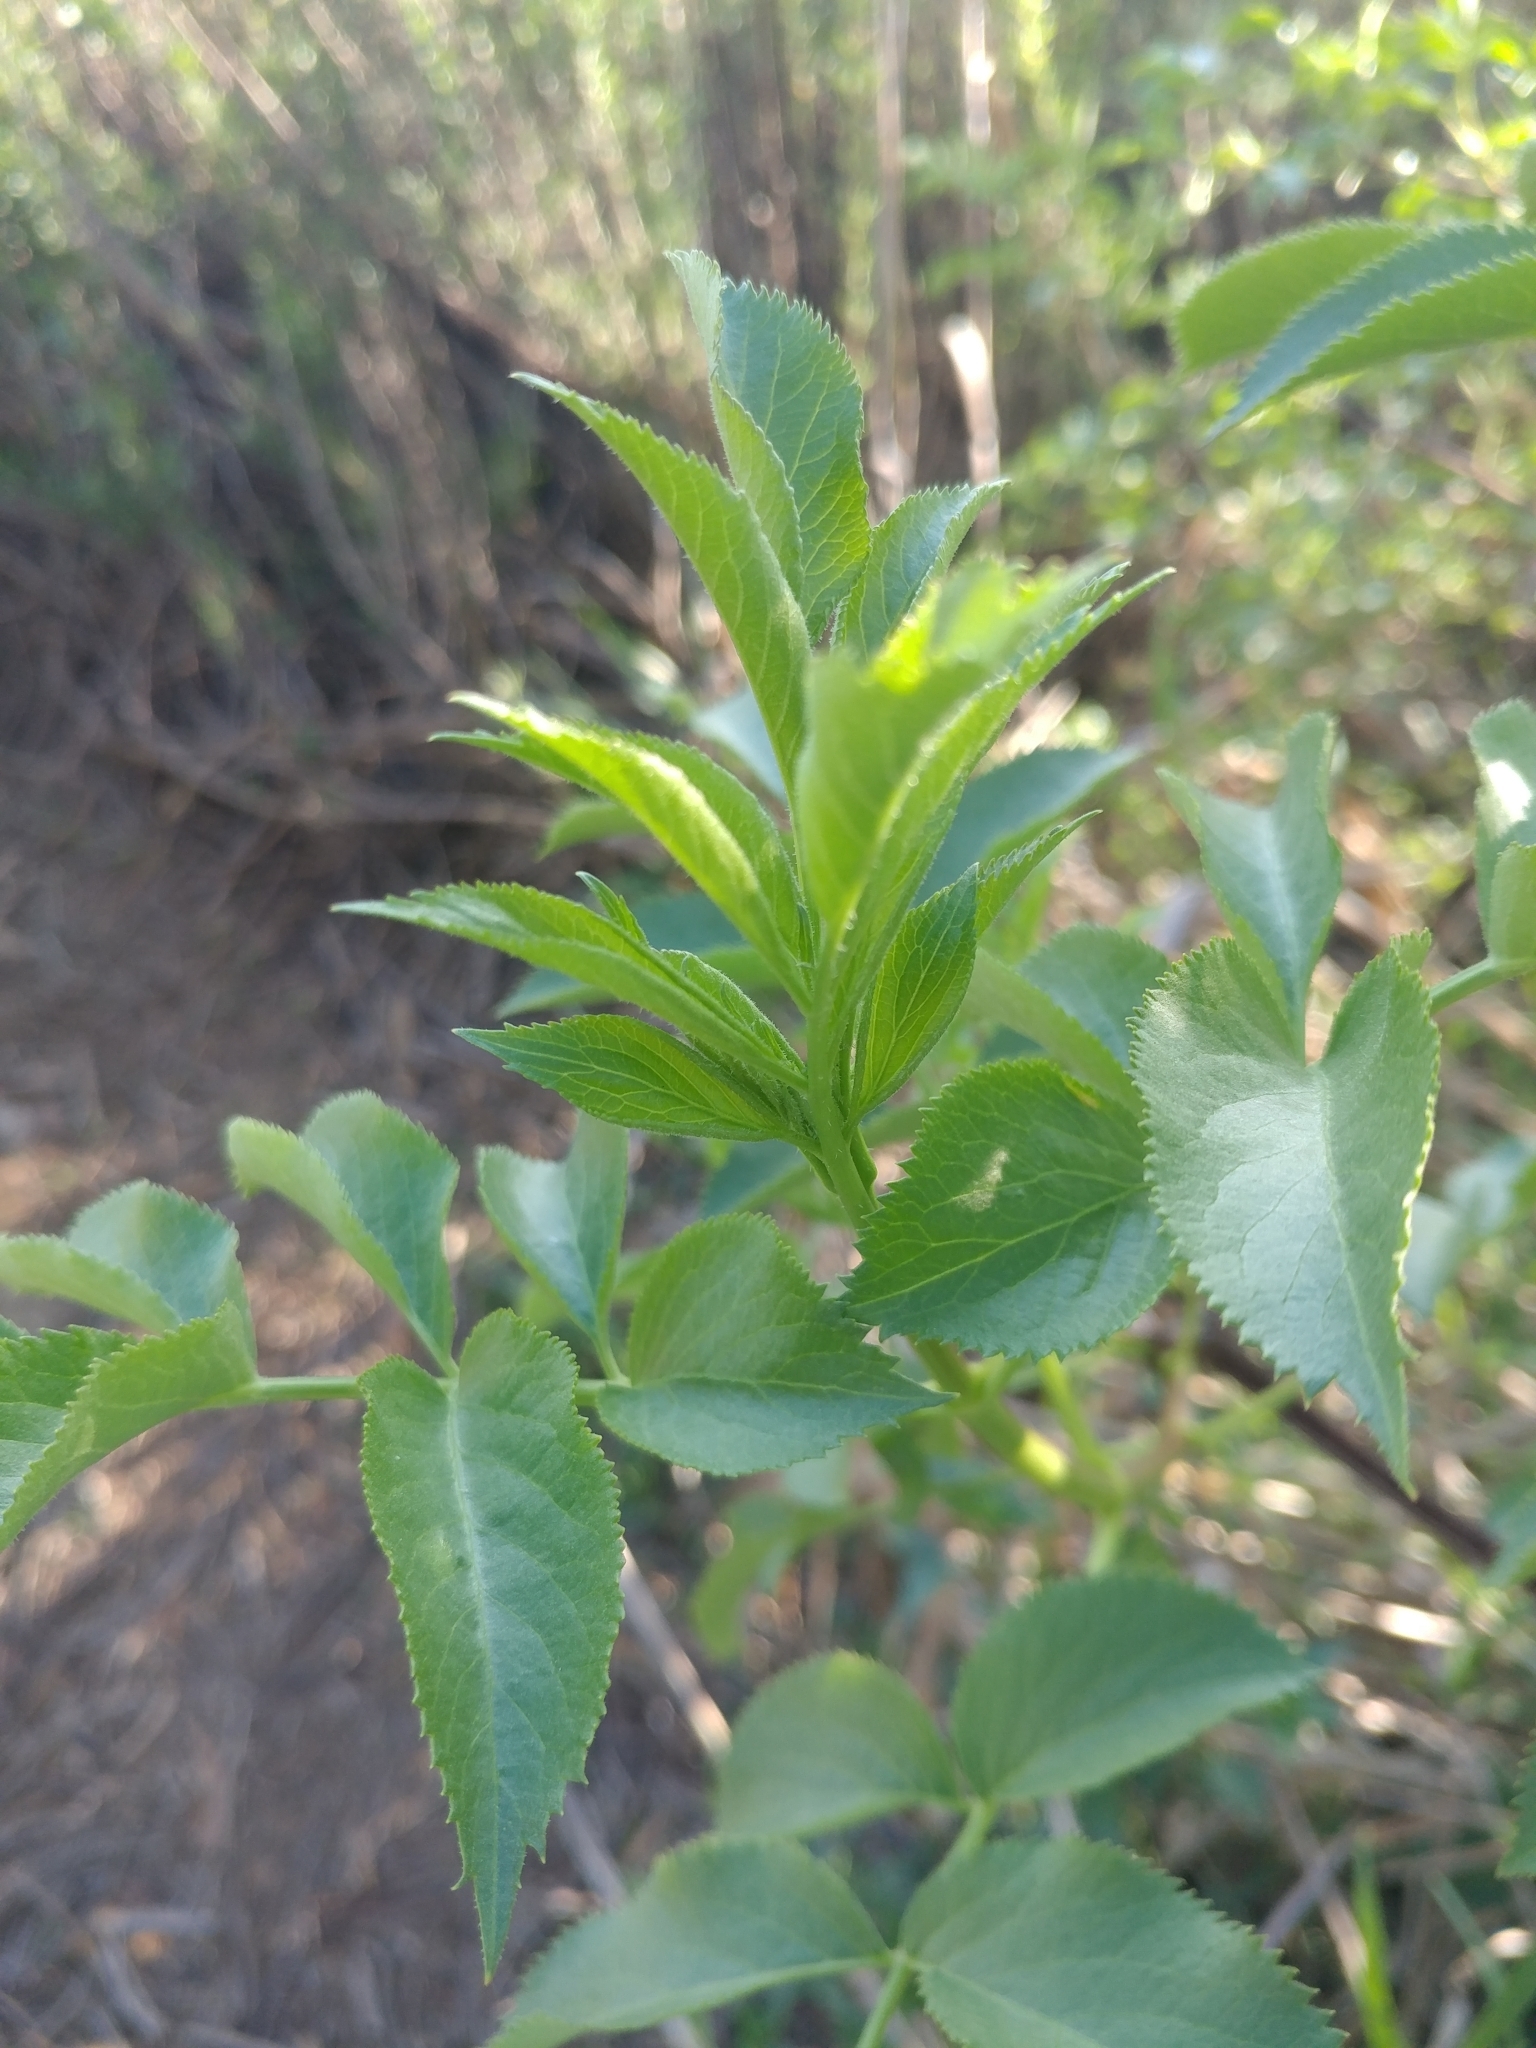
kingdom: Plantae
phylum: Tracheophyta
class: Magnoliopsida
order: Dipsacales
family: Viburnaceae
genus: Sambucus
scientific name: Sambucus cerulea
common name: Blue elder
